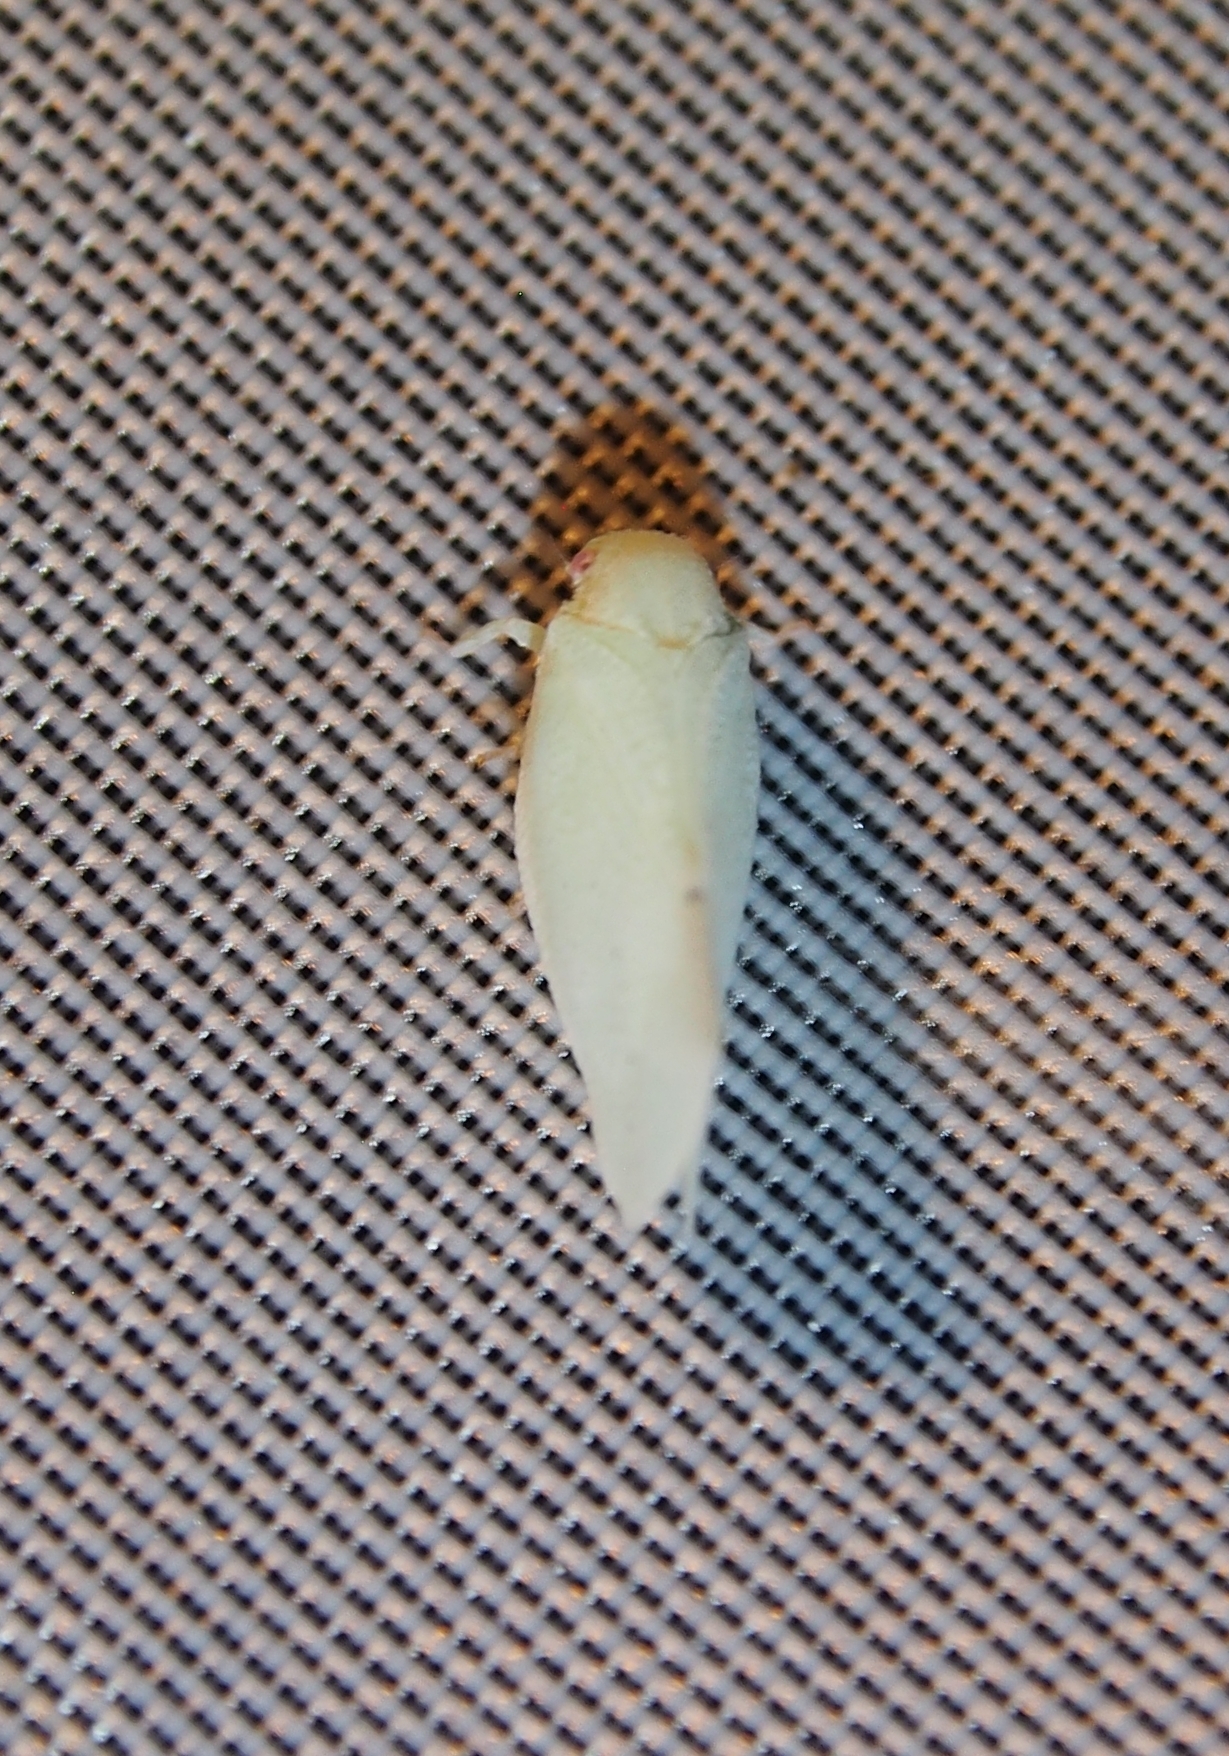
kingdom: Animalia
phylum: Arthropoda
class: Insecta
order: Hemiptera
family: Flatidae
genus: Flatormenis
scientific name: Flatormenis proxima
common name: Northern flatid planthopper
